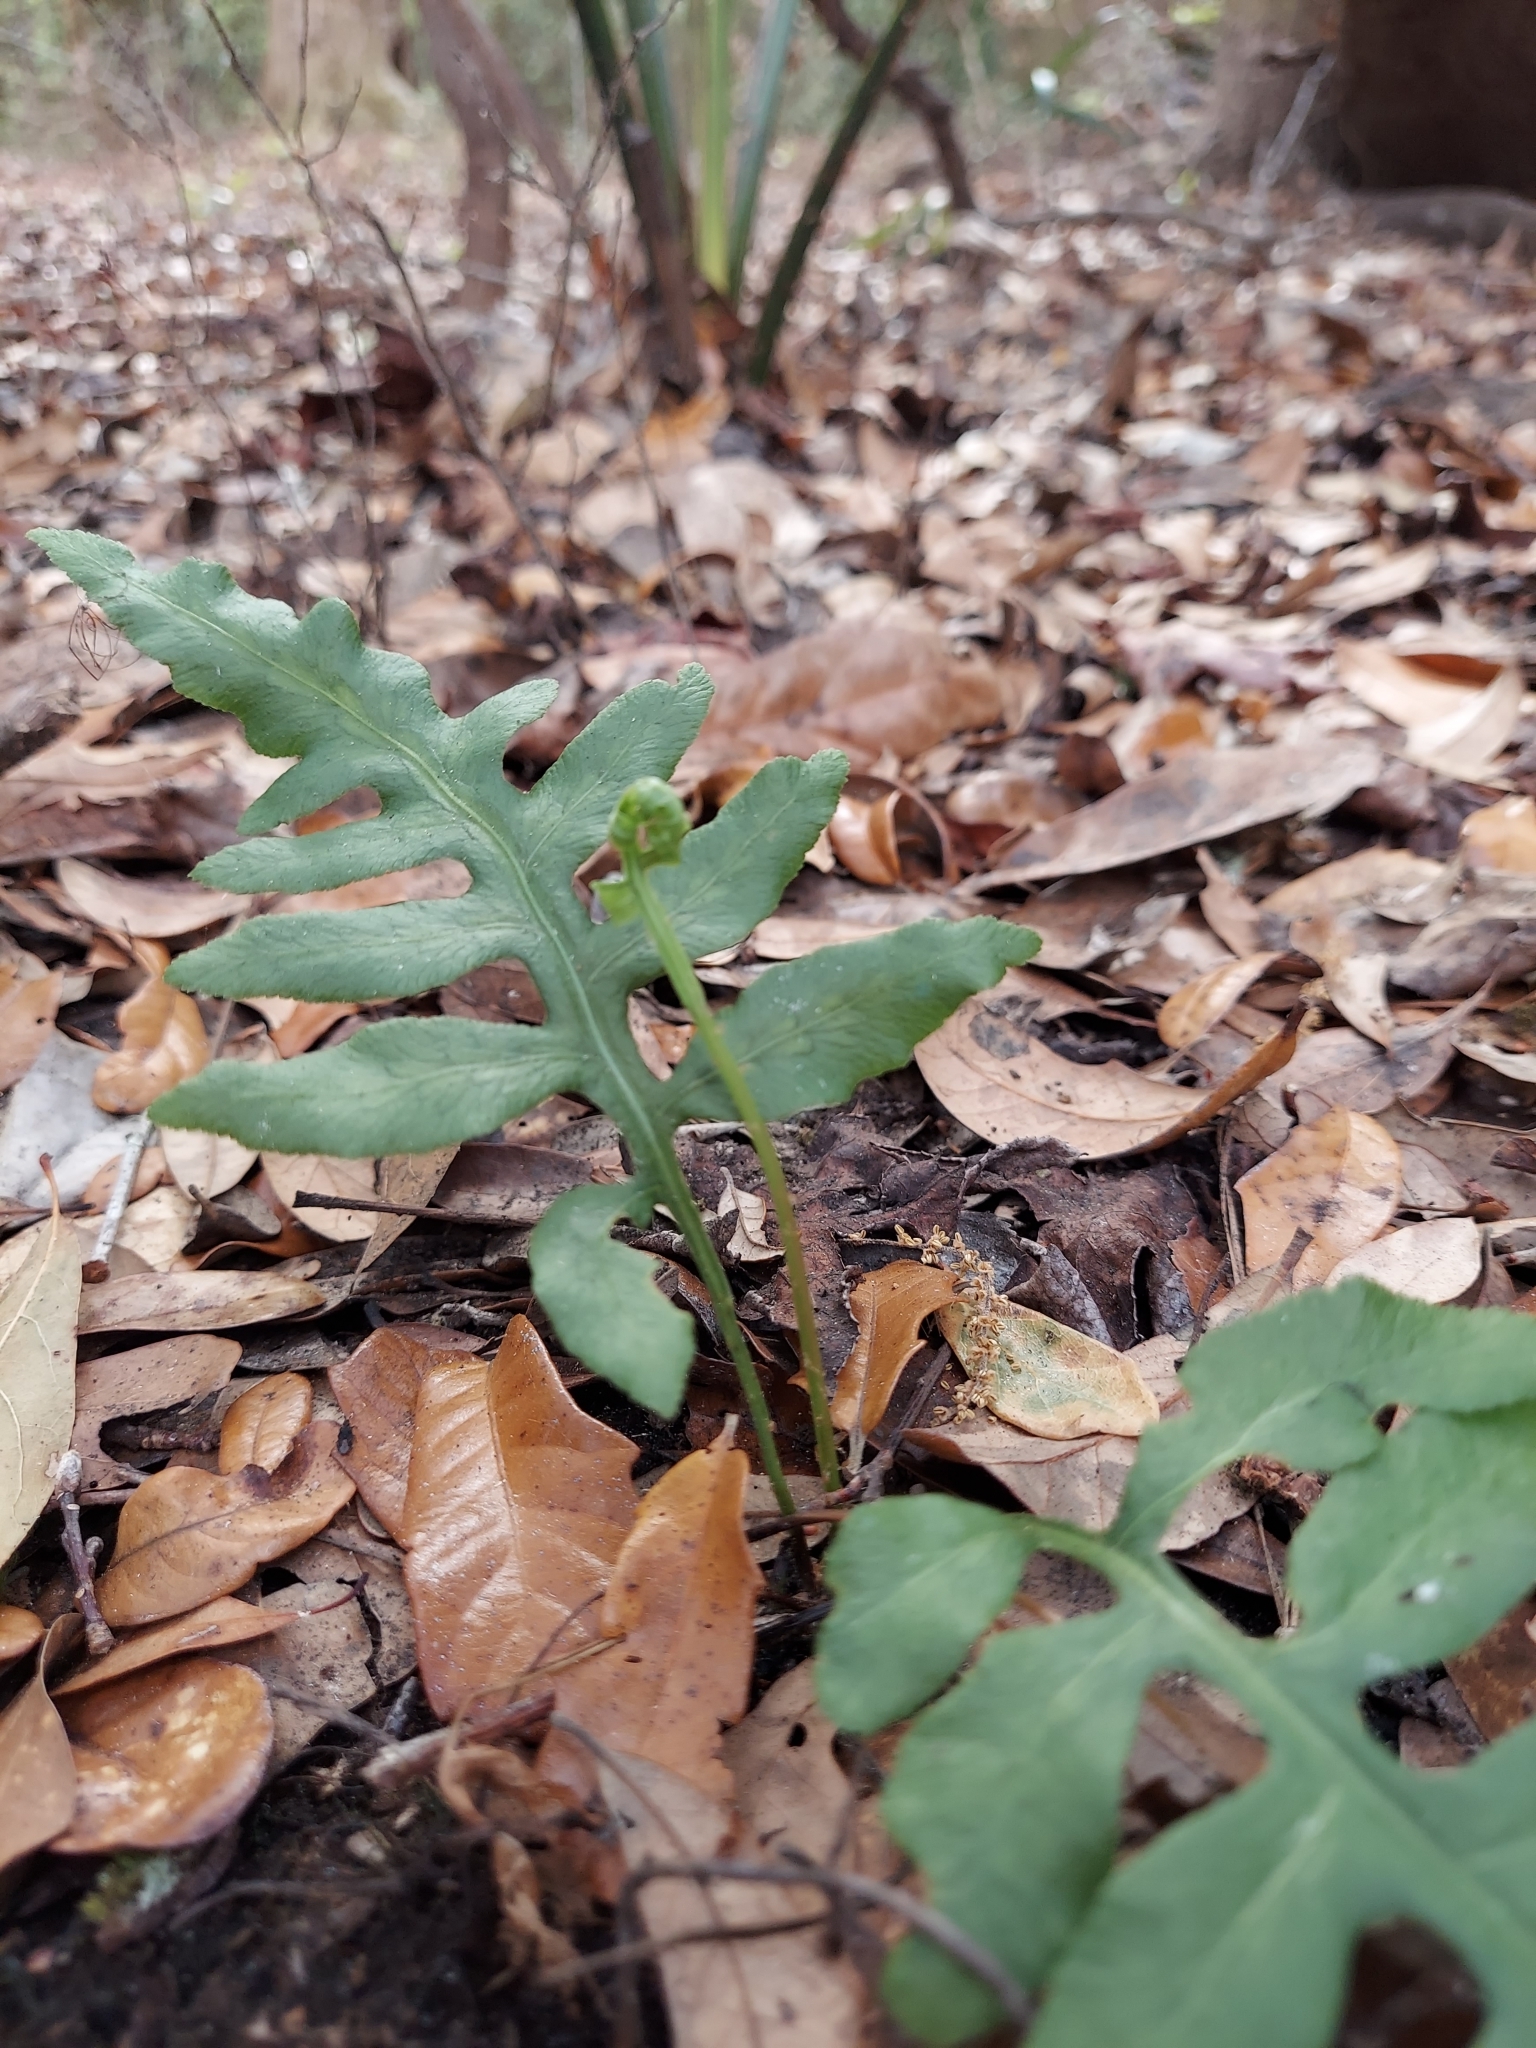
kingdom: Plantae
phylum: Tracheophyta
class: Polypodiopsida
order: Polypodiales
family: Blechnaceae
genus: Lorinseria
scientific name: Lorinseria areolata
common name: Dwarf chain fern
